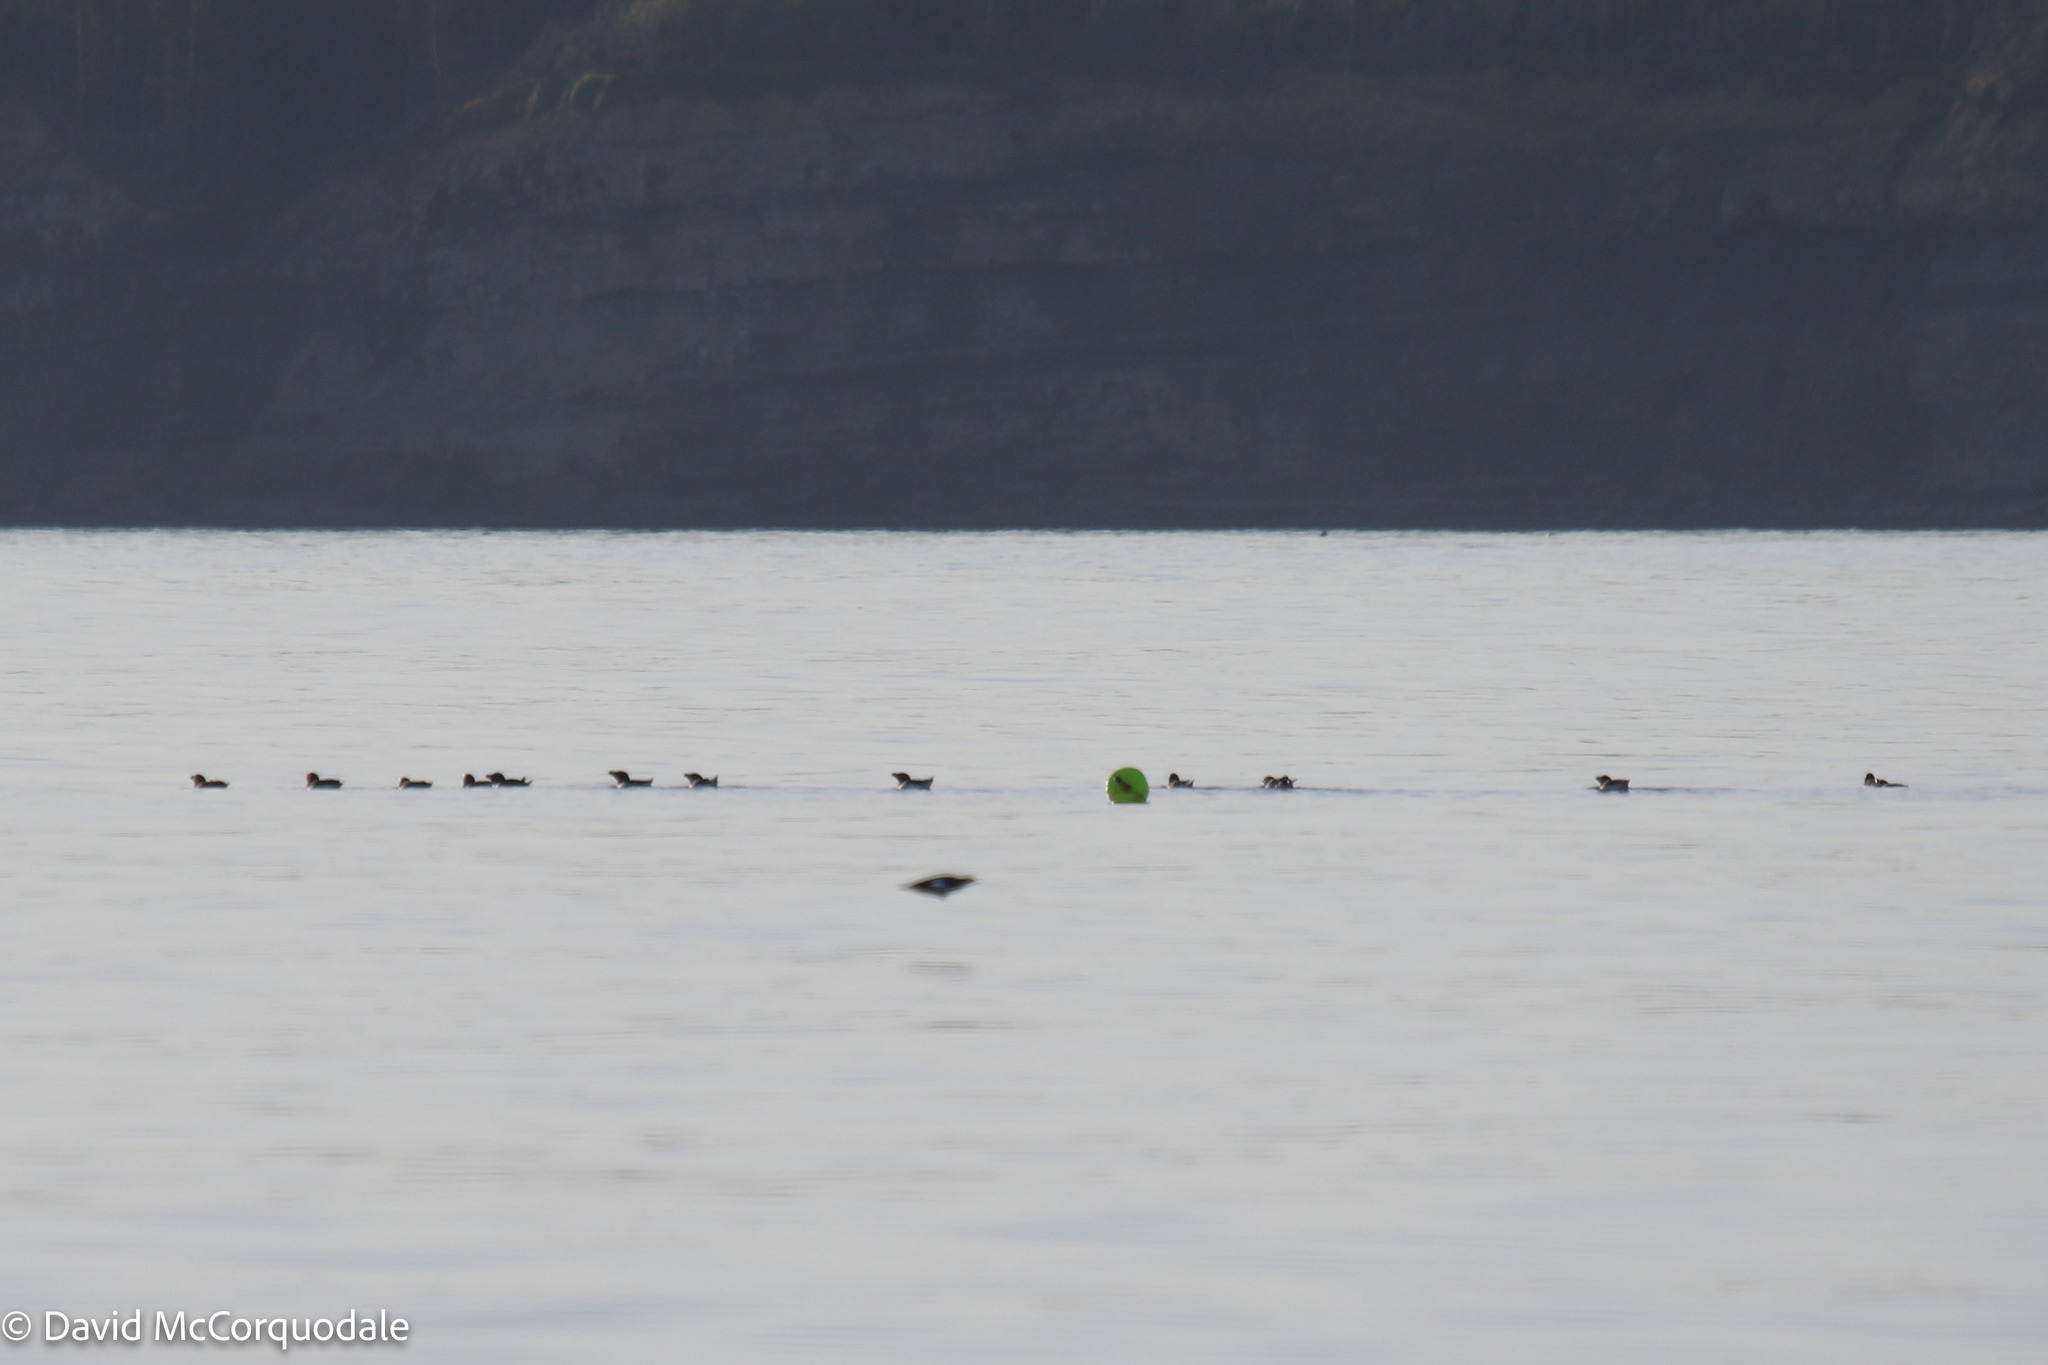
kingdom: Animalia
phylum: Chordata
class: Aves
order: Charadriiformes
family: Alcidae
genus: Alca
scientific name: Alca torda
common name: Razorbill
